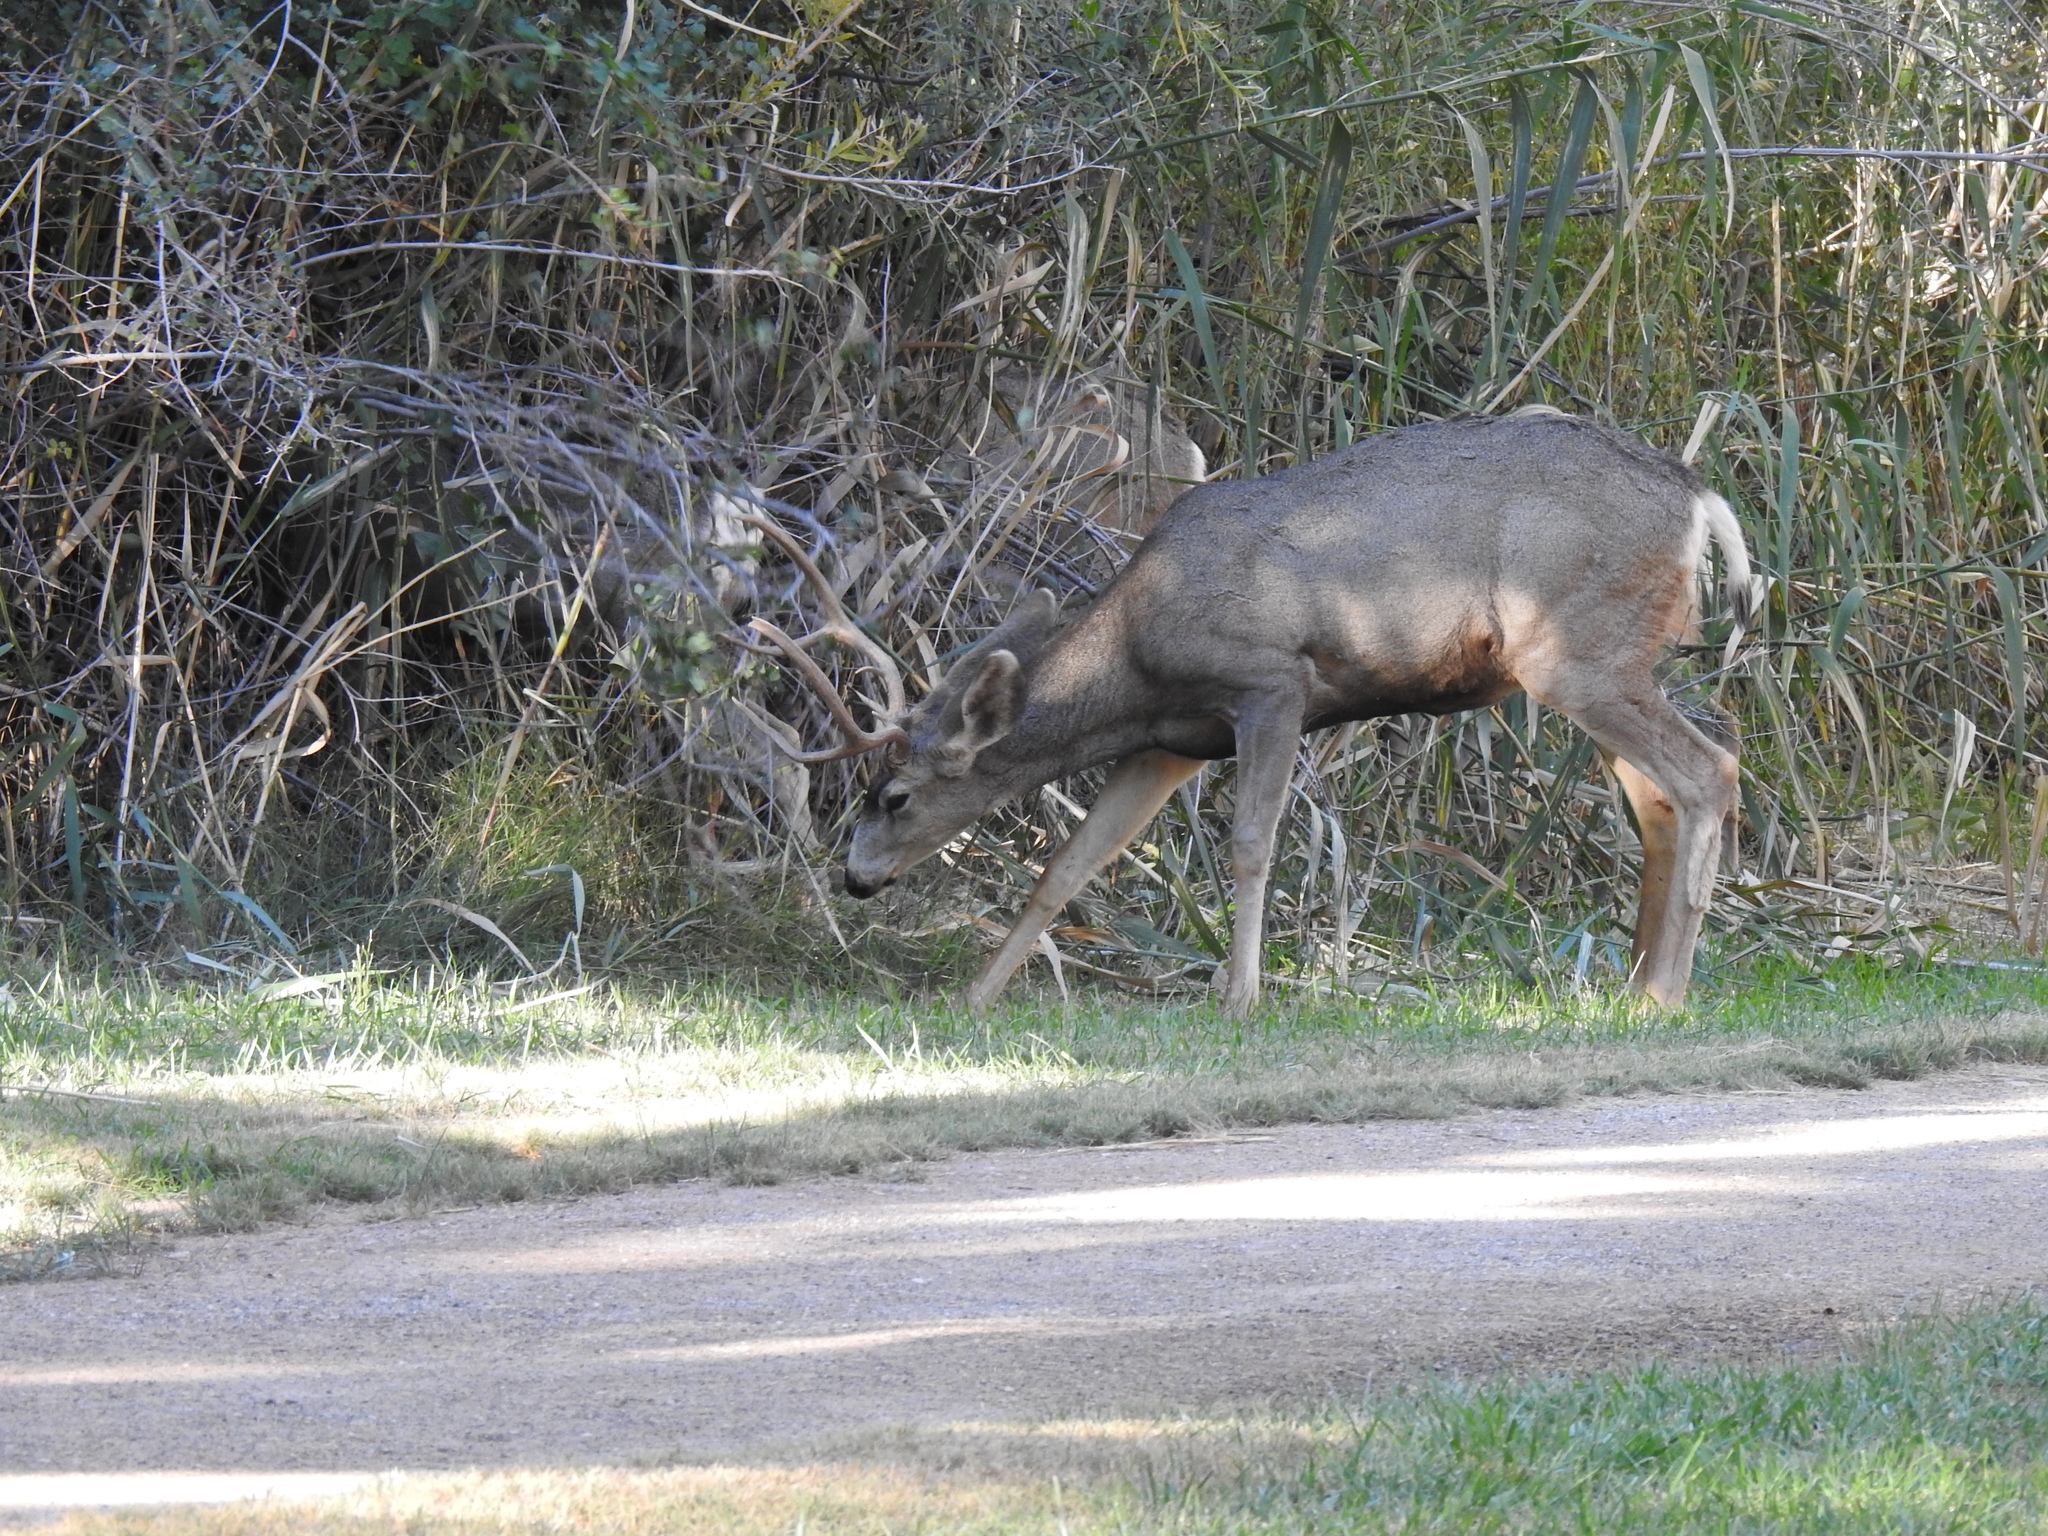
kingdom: Animalia
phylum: Chordata
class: Mammalia
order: Artiodactyla
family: Cervidae
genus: Odocoileus
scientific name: Odocoileus hemionus
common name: Mule deer
